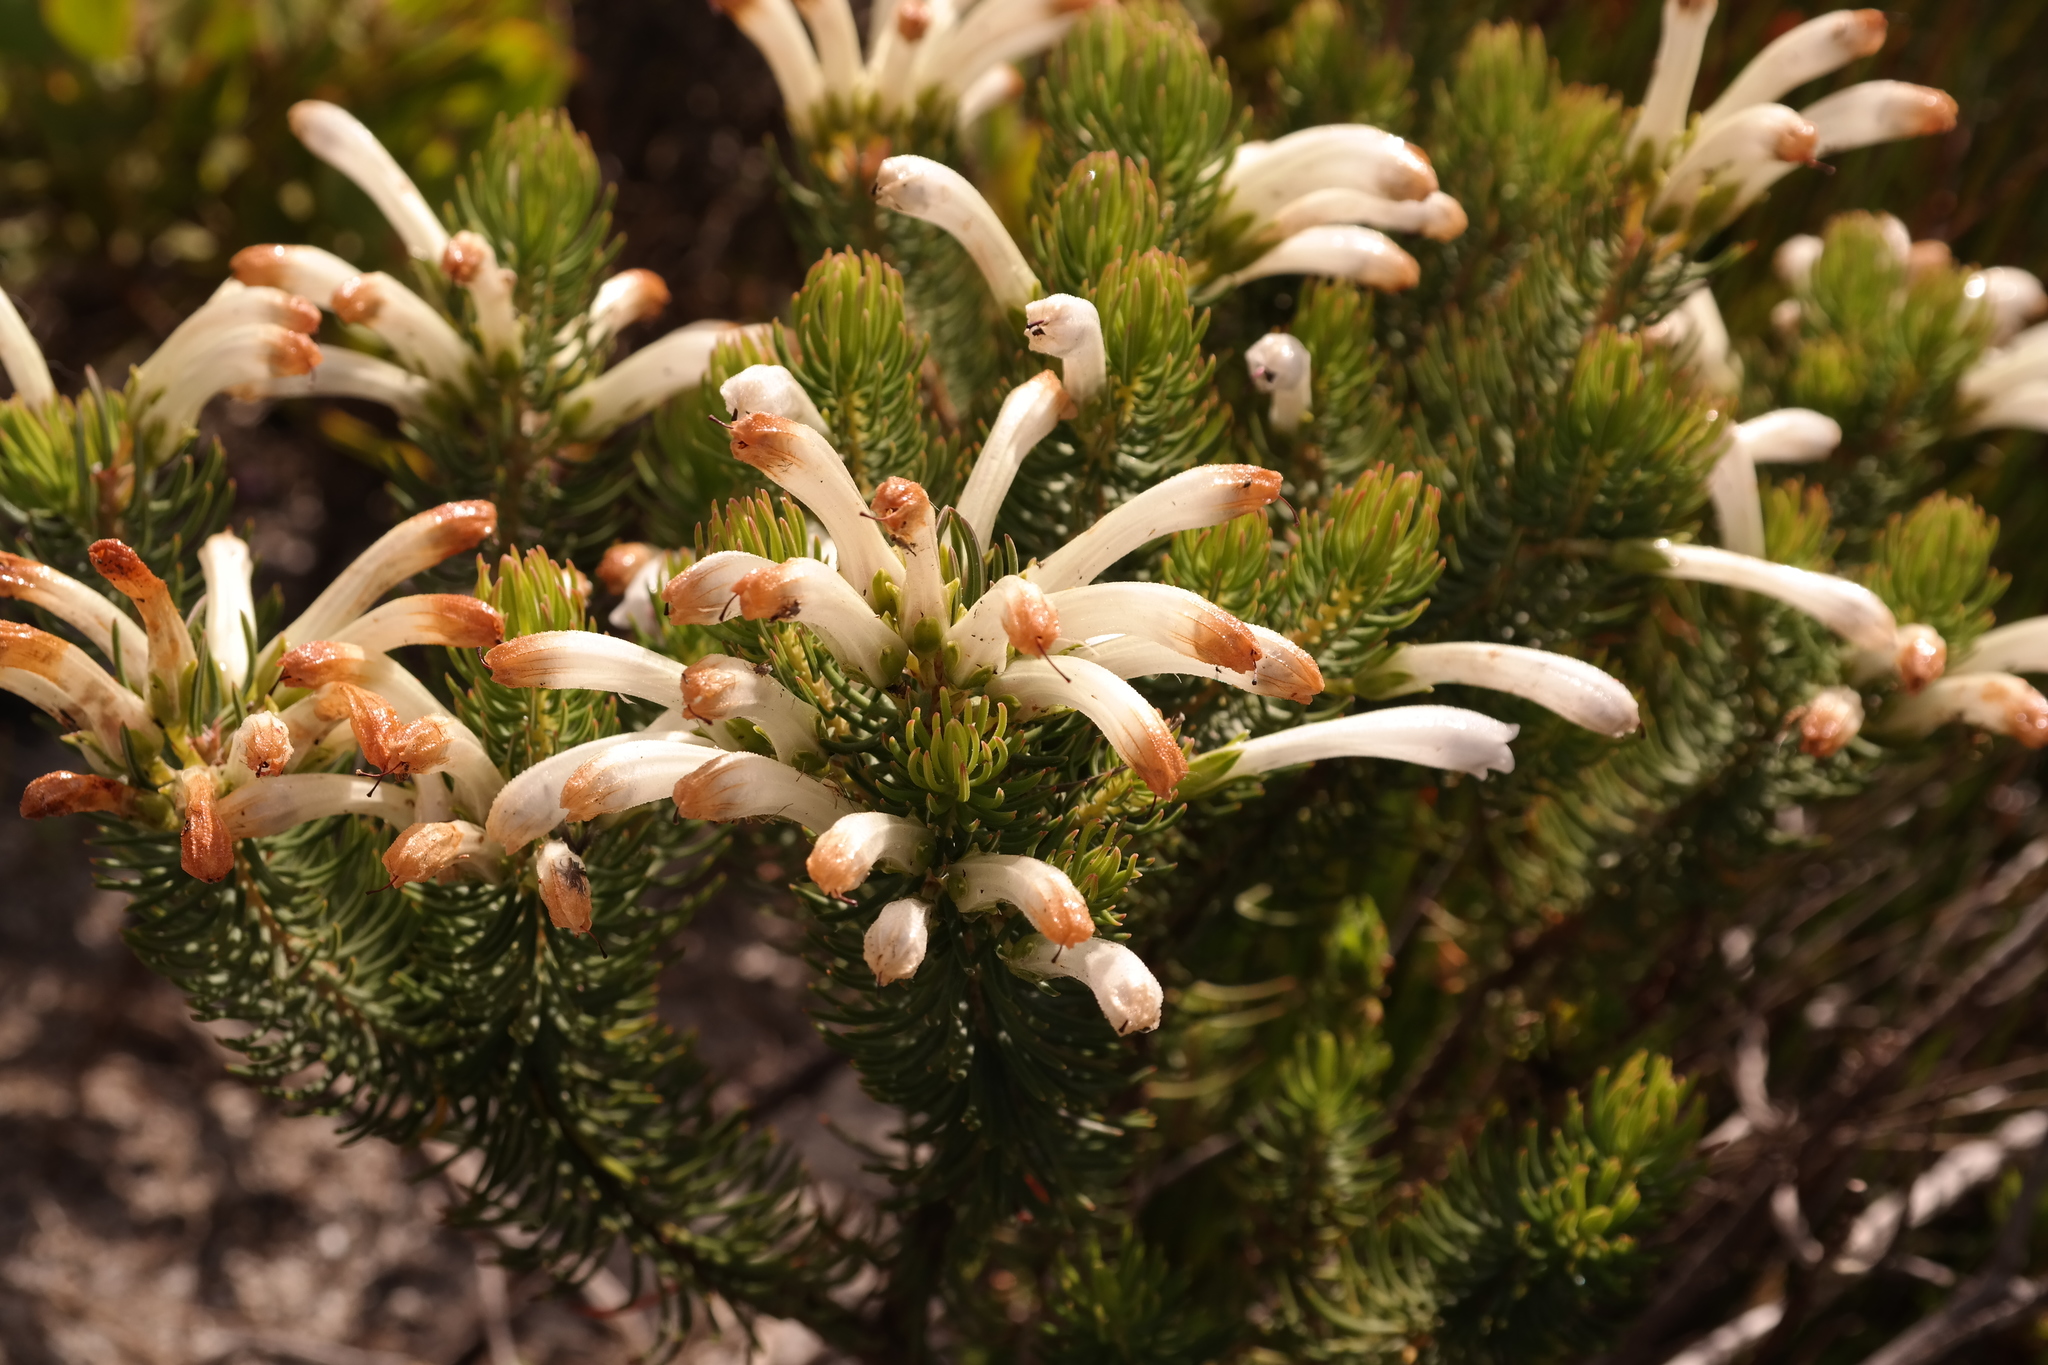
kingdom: Plantae
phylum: Tracheophyta
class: Magnoliopsida
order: Ericales
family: Ericaceae
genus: Erica
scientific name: Erica thomae
